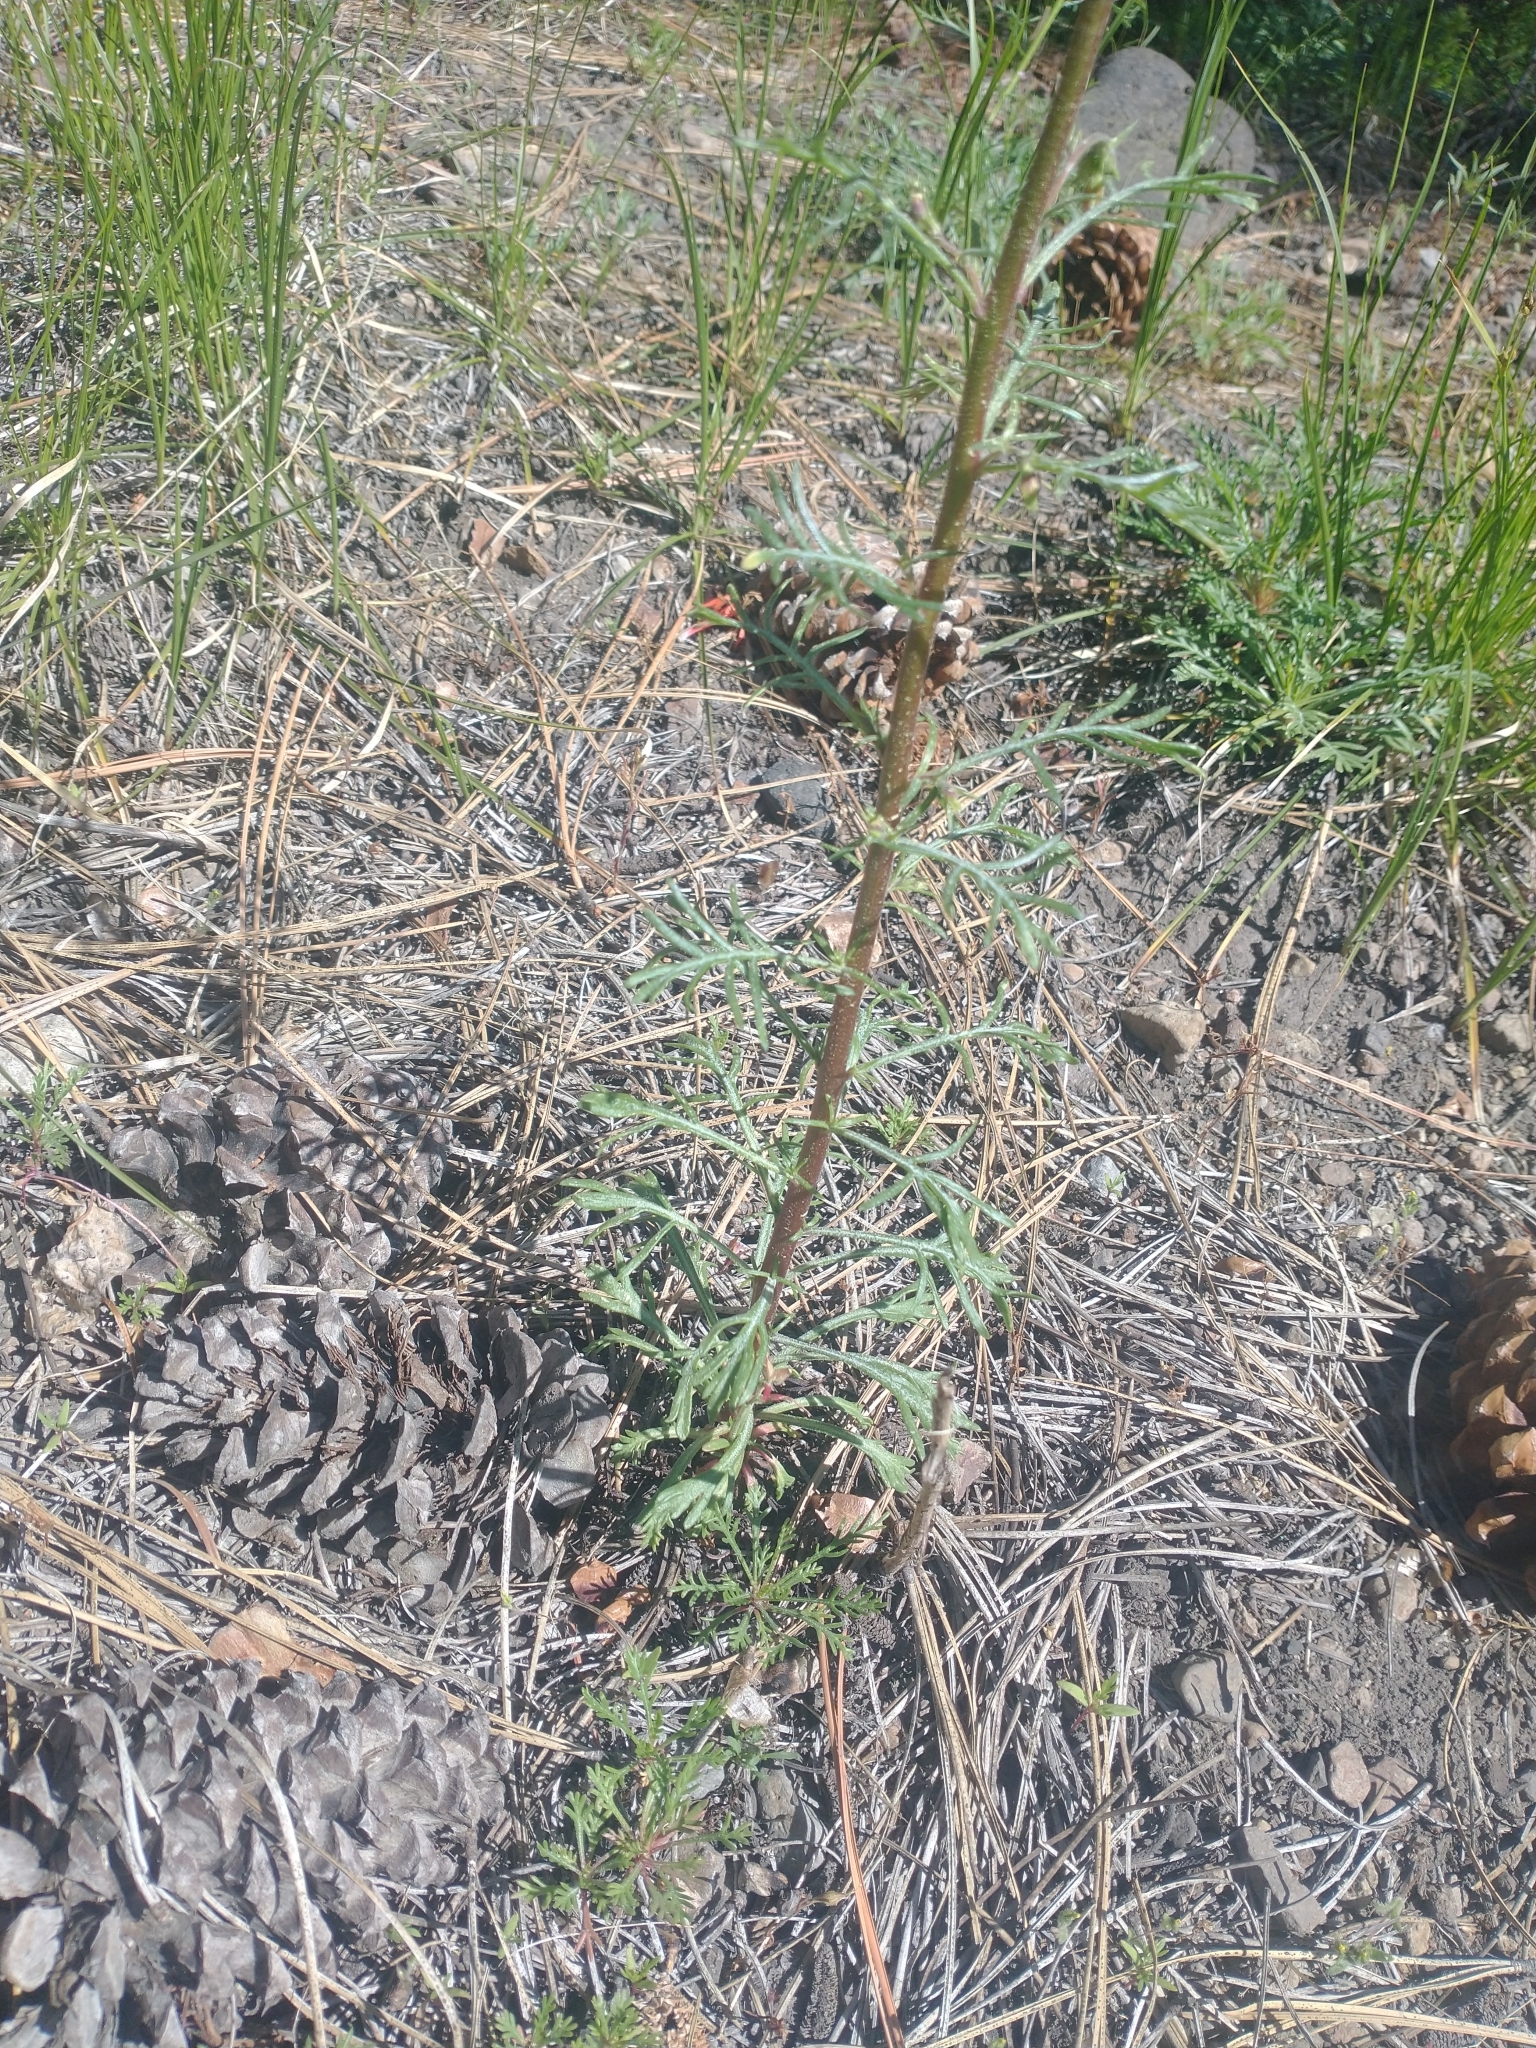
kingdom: Plantae
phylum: Tracheophyta
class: Magnoliopsida
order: Ericales
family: Polemoniaceae
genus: Ipomopsis
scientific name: Ipomopsis aggregata
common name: Scarlet gilia
